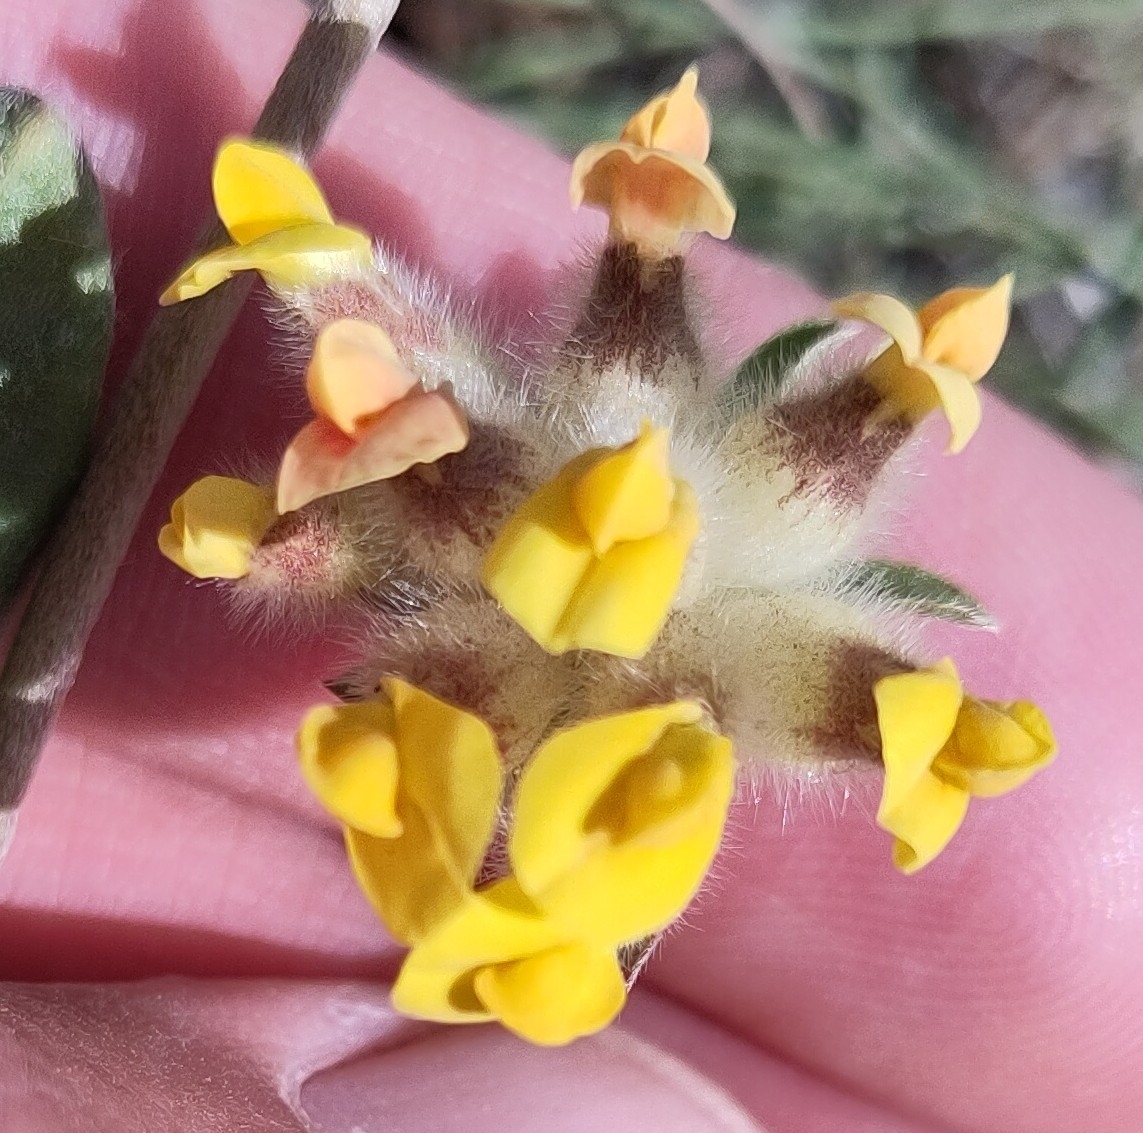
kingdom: Plantae
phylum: Tracheophyta
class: Magnoliopsida
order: Fabales
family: Fabaceae
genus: Anthyllis
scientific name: Anthyllis vulneraria
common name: Kidney vetch
